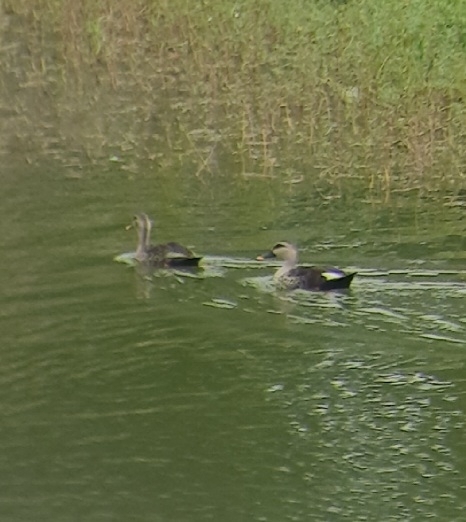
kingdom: Animalia
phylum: Chordata
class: Aves
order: Anseriformes
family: Anatidae
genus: Anas
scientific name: Anas poecilorhyncha
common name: Indian spot-billed duck
